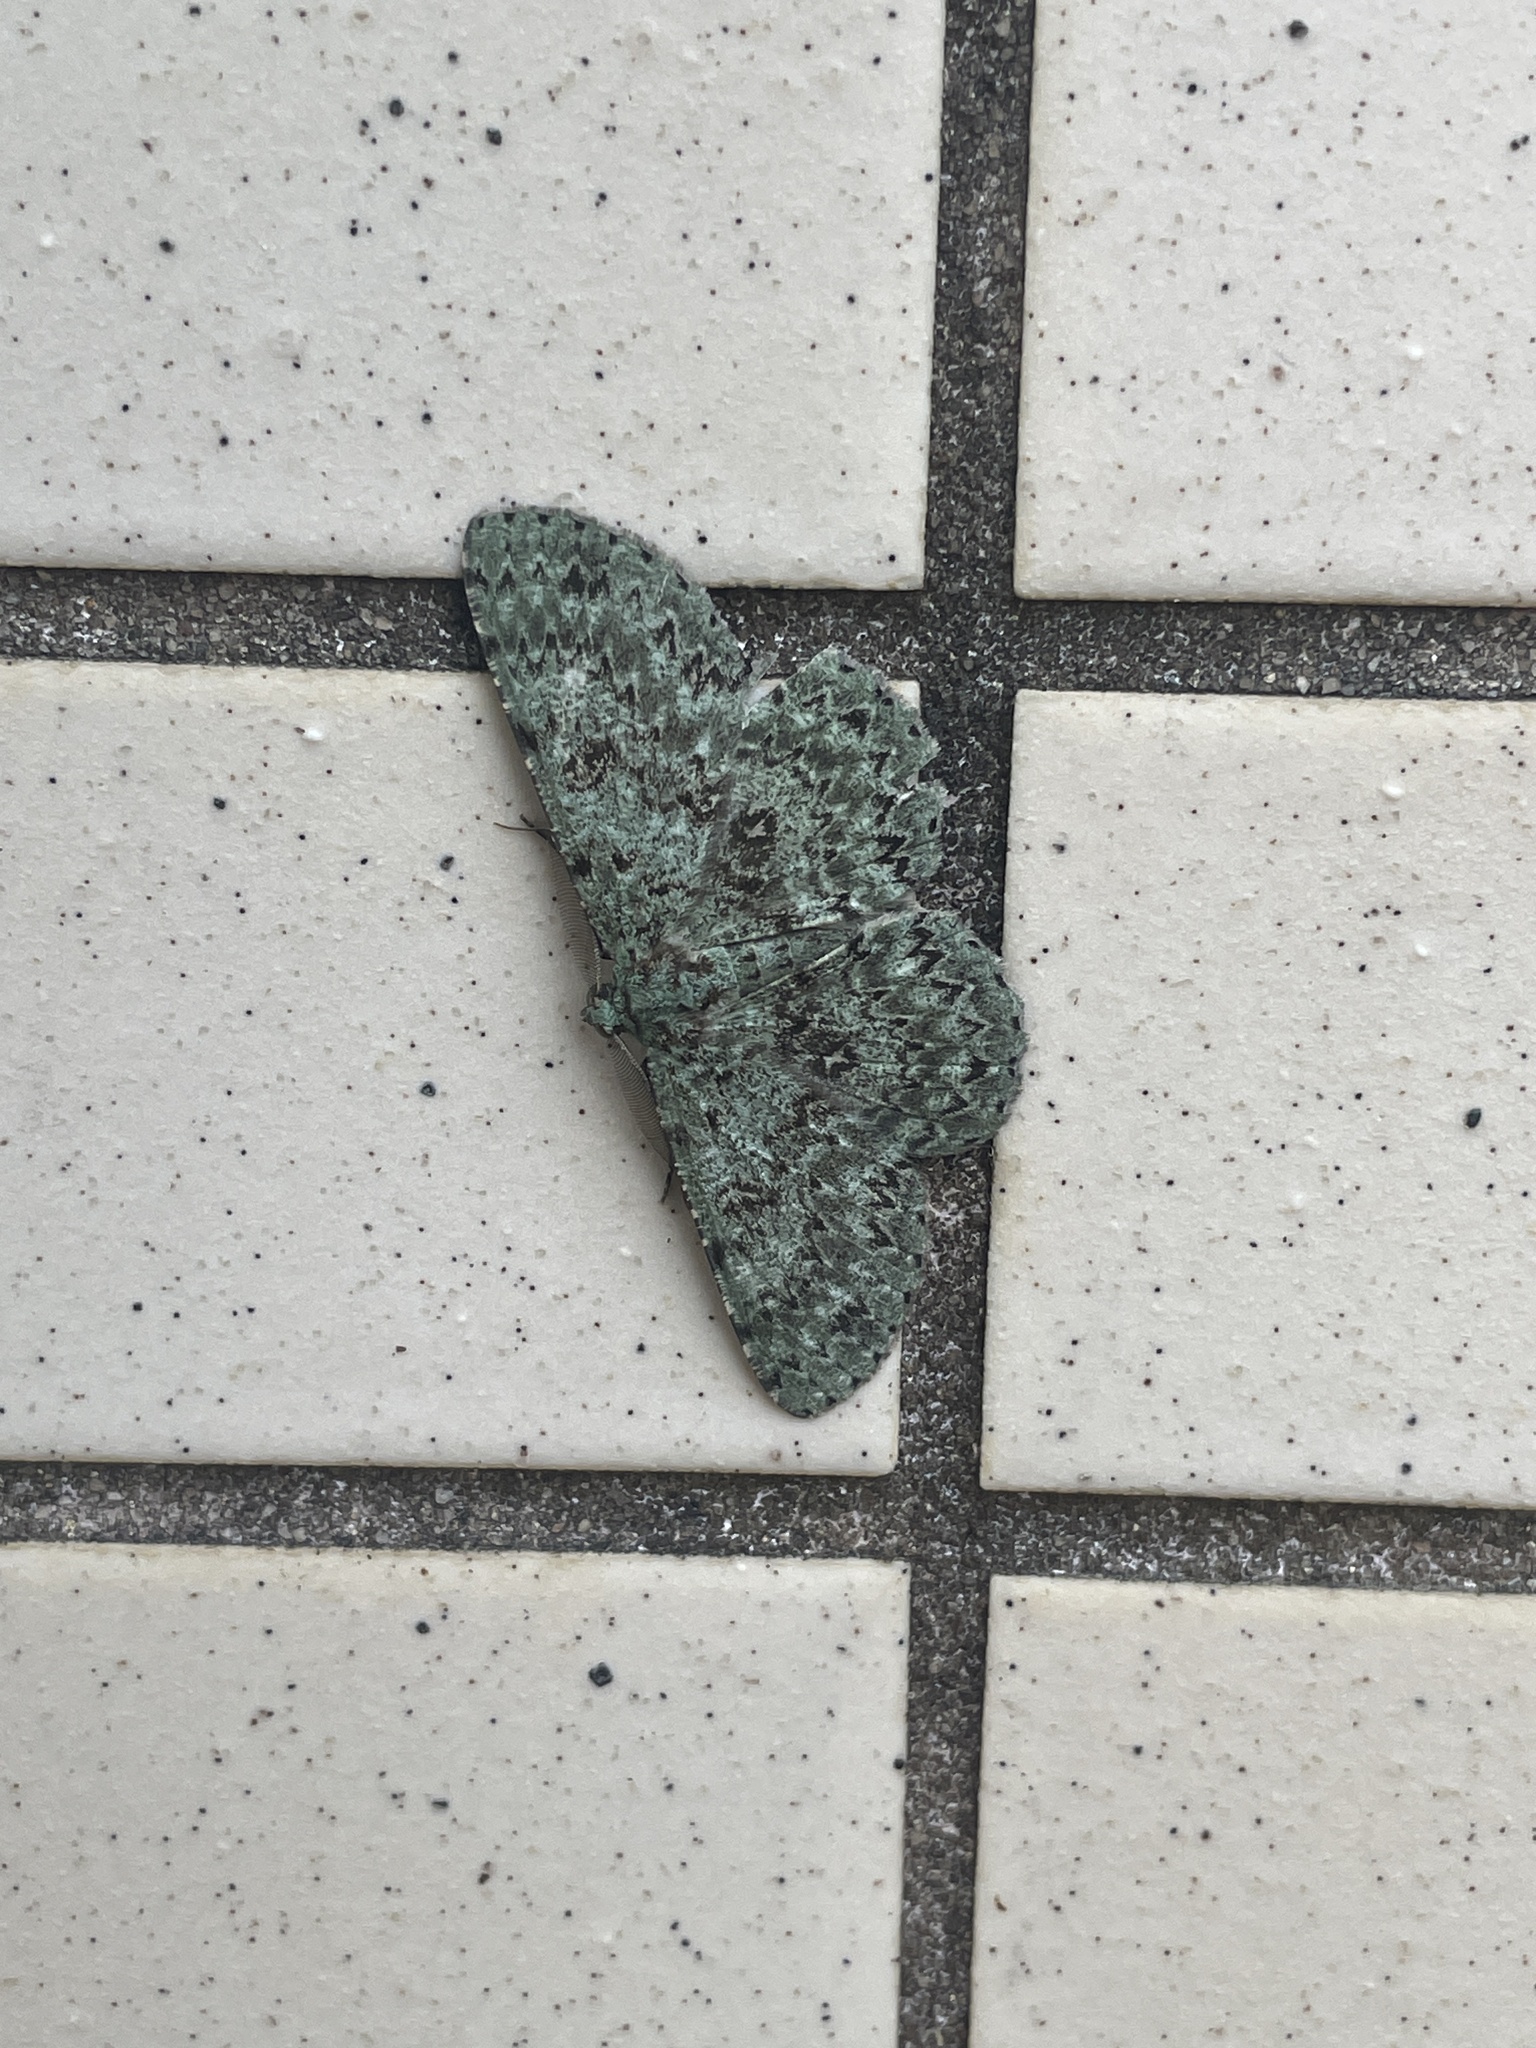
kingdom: Animalia
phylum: Arthropoda
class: Insecta
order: Lepidoptera
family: Geometridae
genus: Ophthalmitis
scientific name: Ophthalmitis herbidaria
